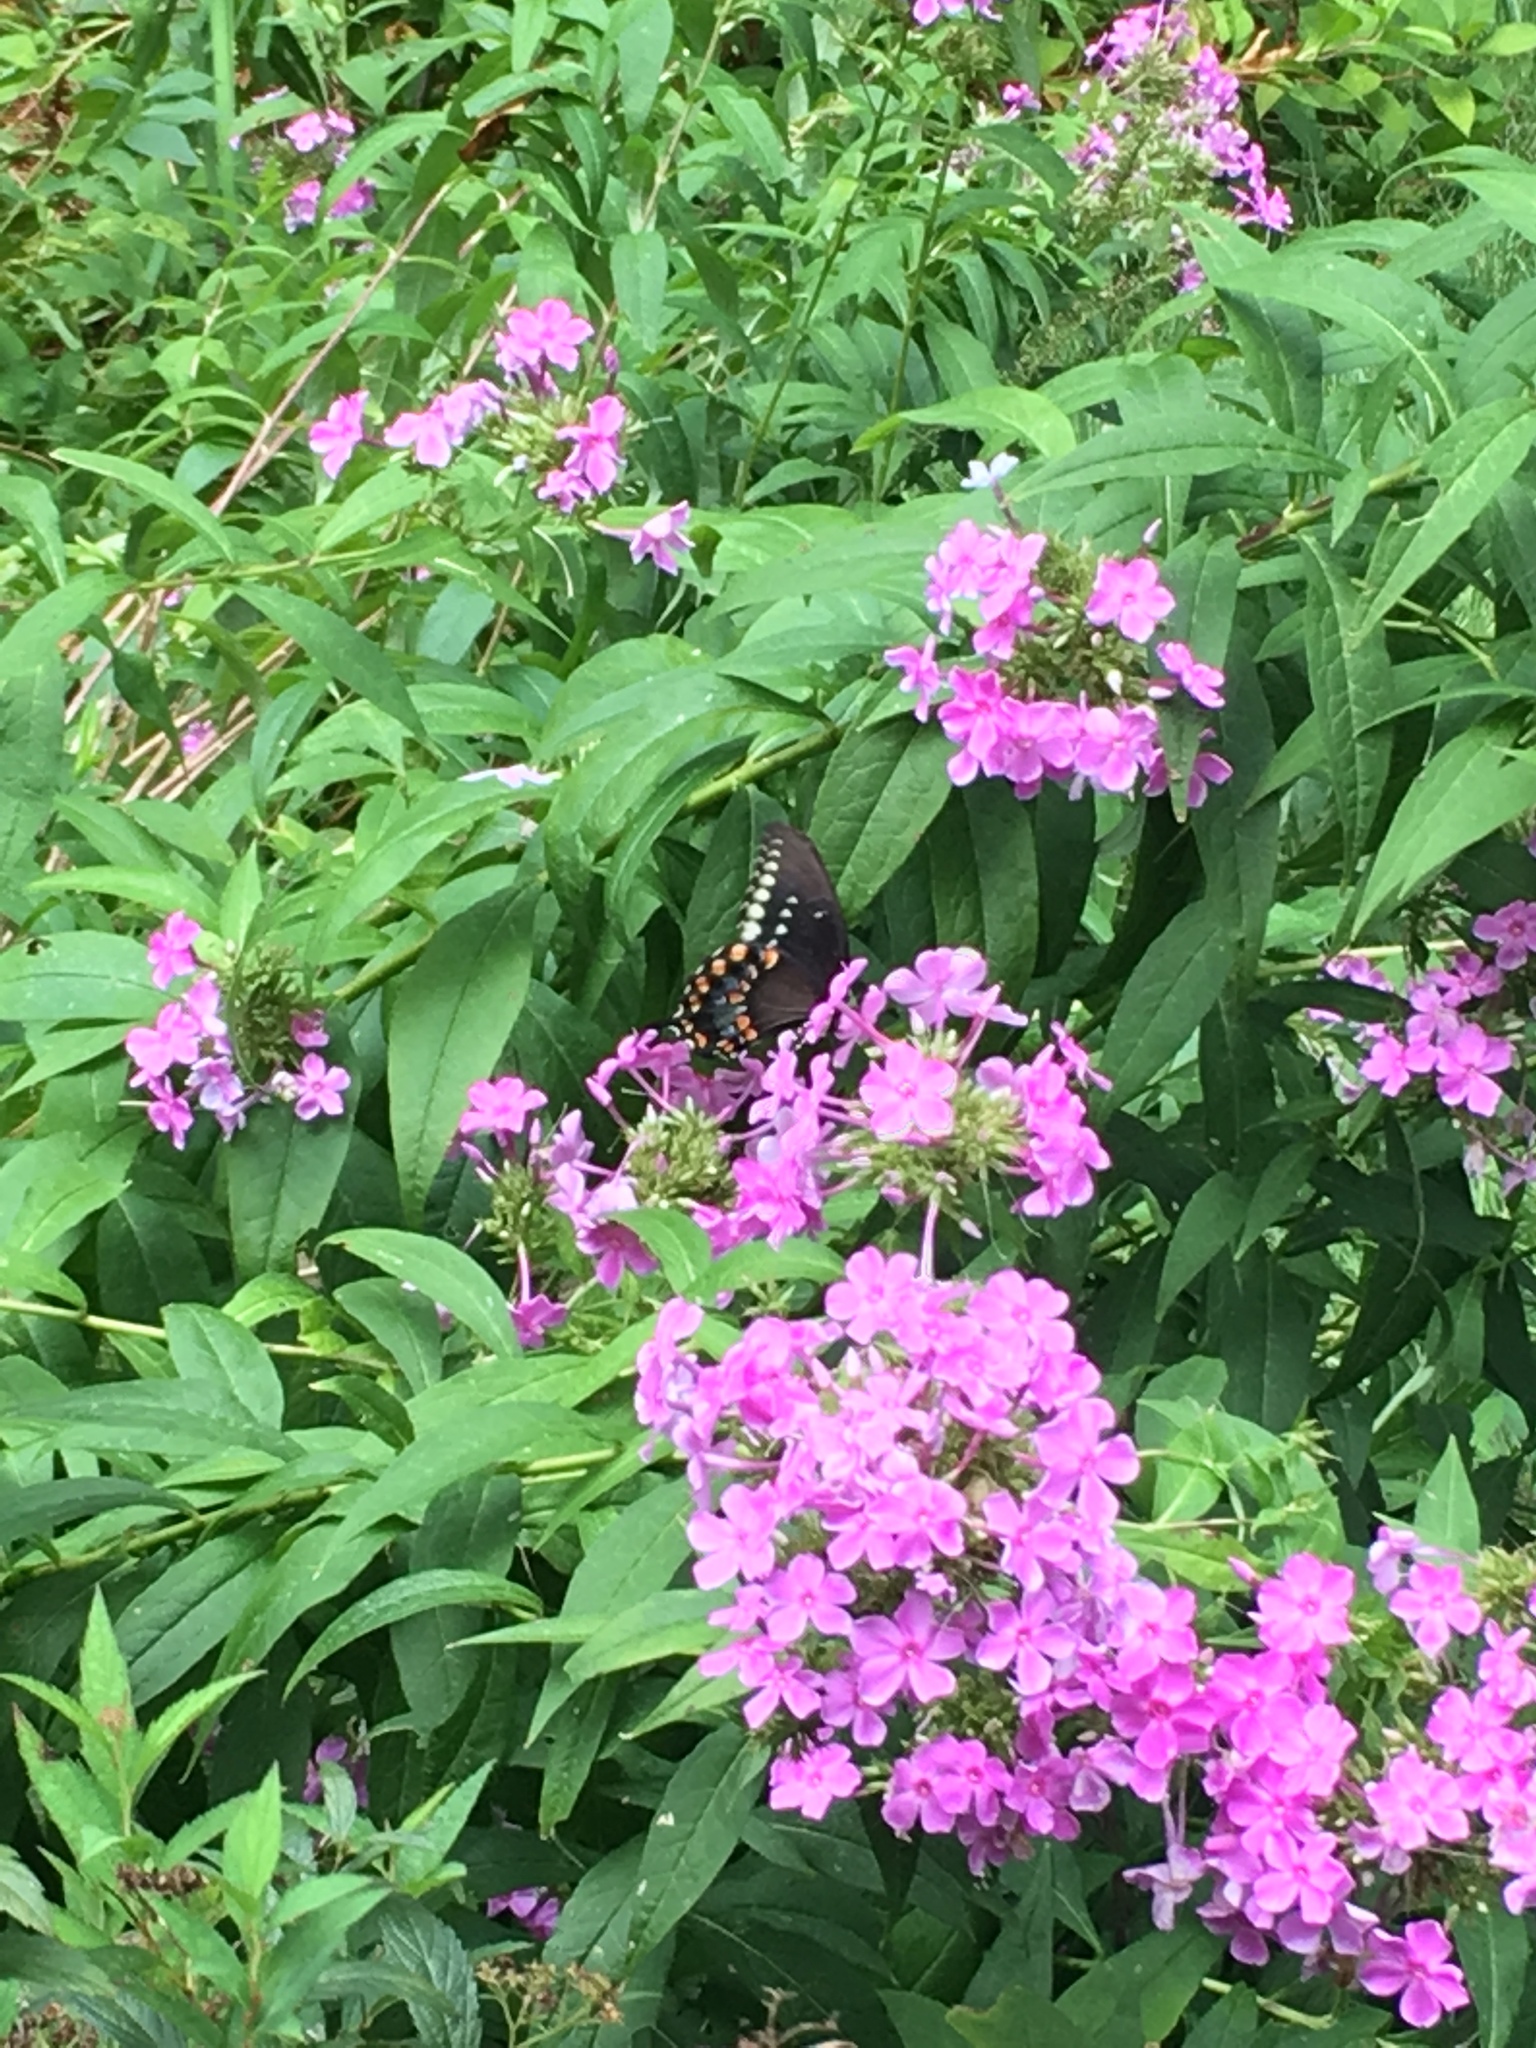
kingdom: Animalia
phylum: Arthropoda
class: Insecta
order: Lepidoptera
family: Papilionidae
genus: Papilio
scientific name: Papilio troilus
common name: Spicebush swallowtail
